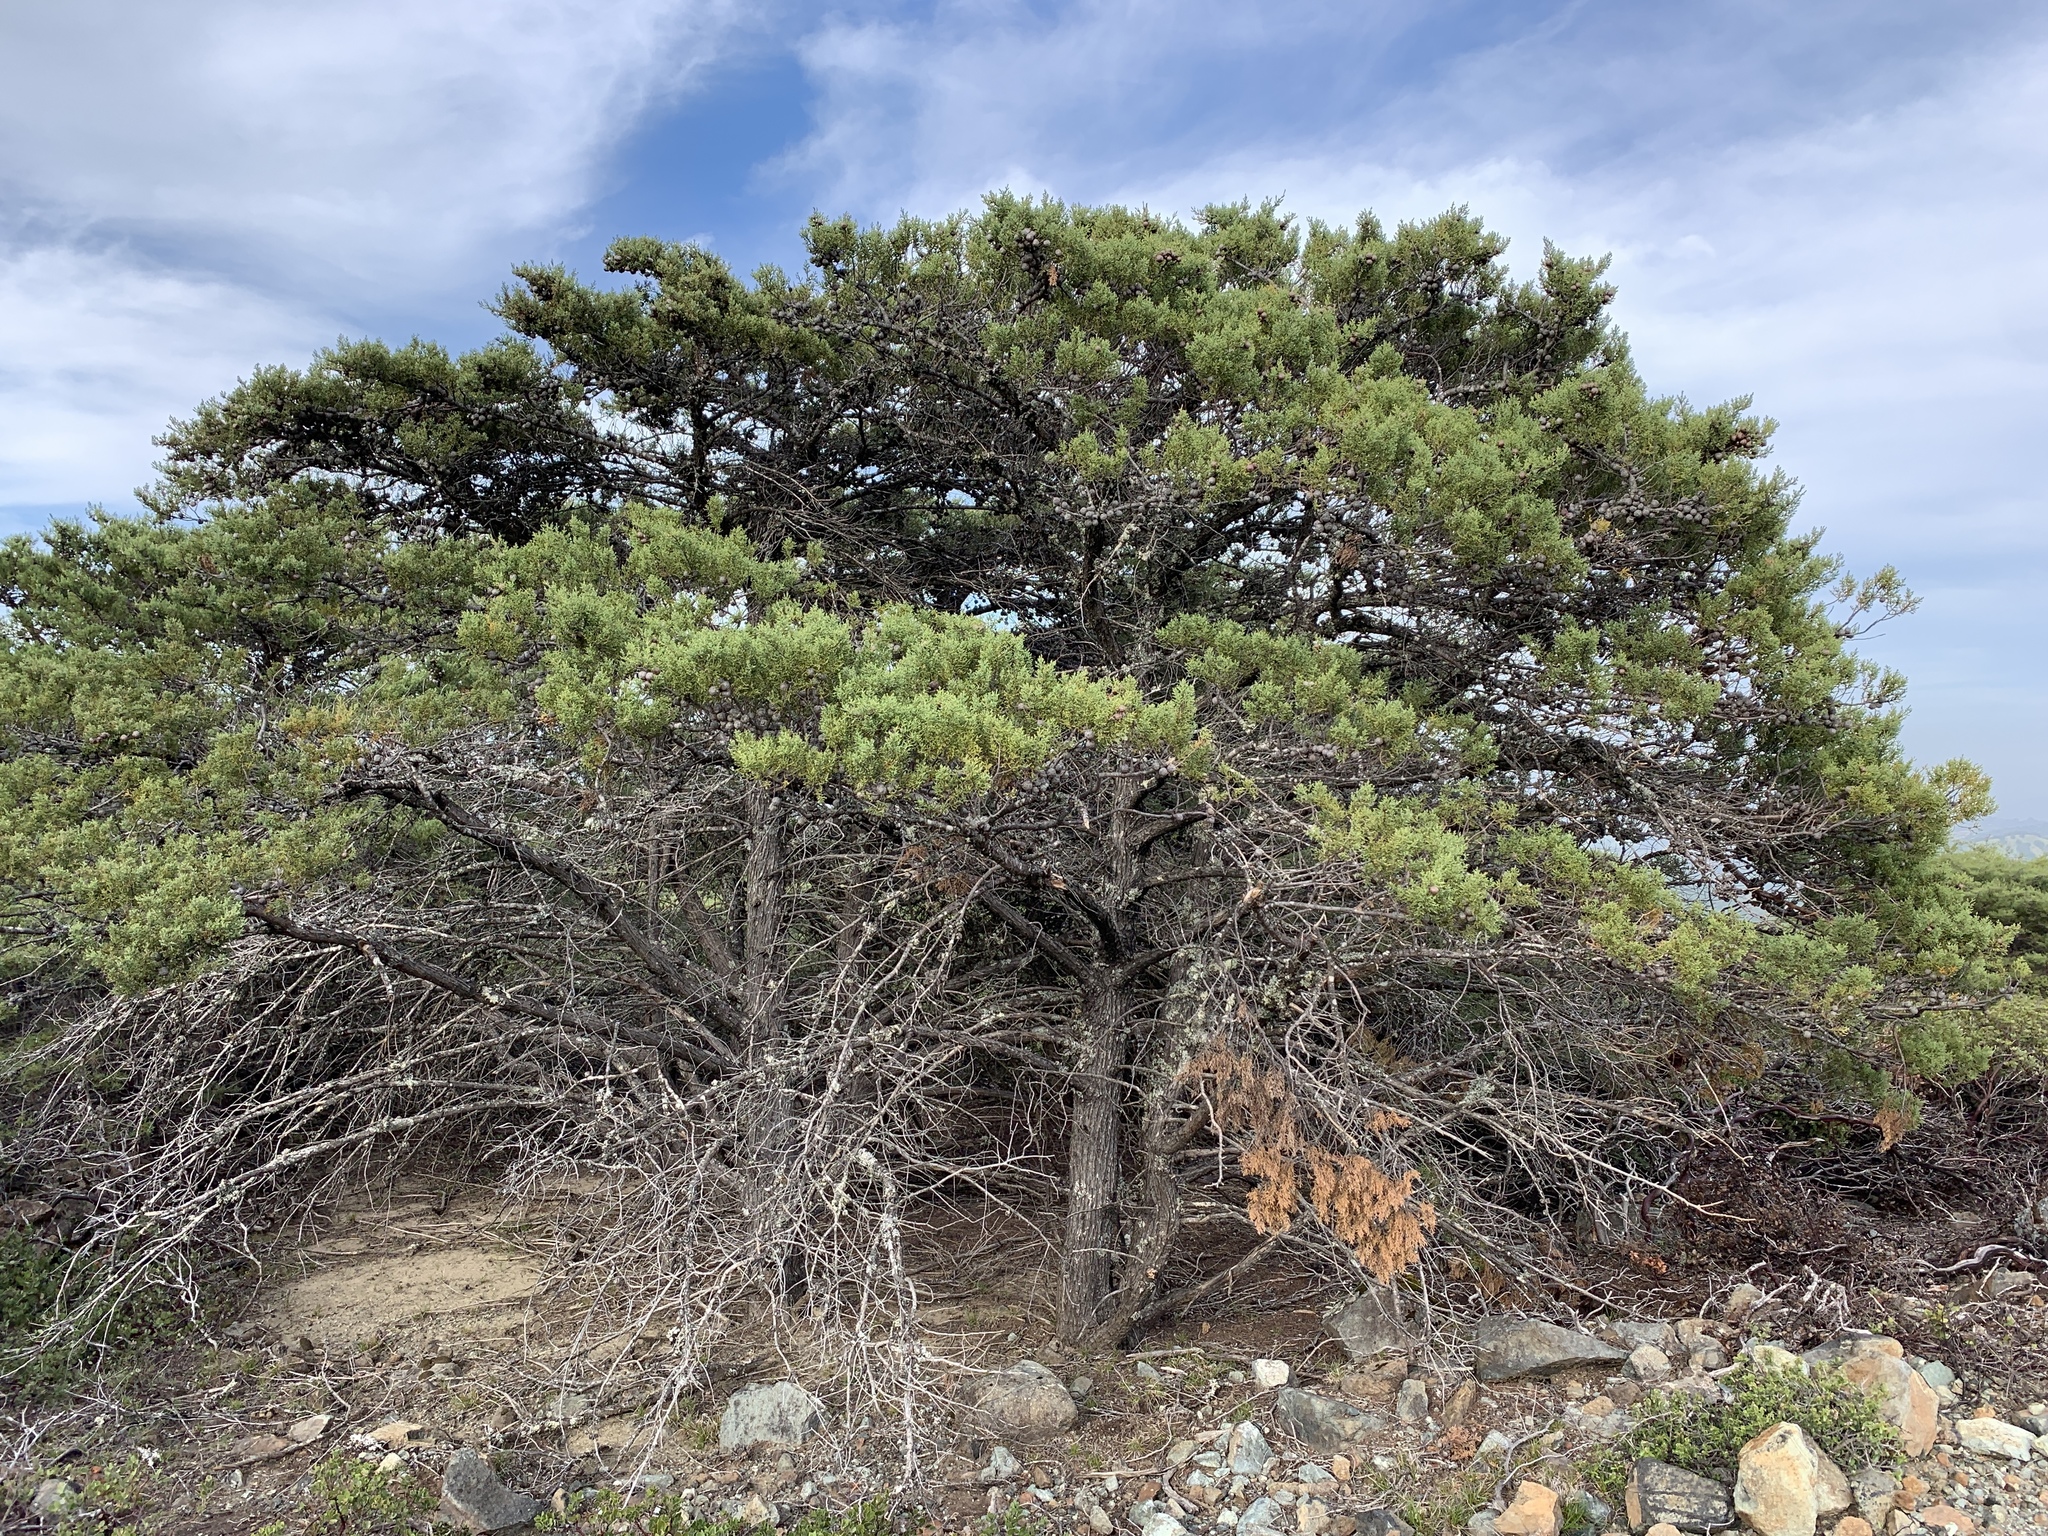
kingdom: Plantae
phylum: Tracheophyta
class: Pinopsida
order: Pinales
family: Cupressaceae
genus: Cupressus
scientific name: Cupressus sargentii
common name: Sargent cypress
